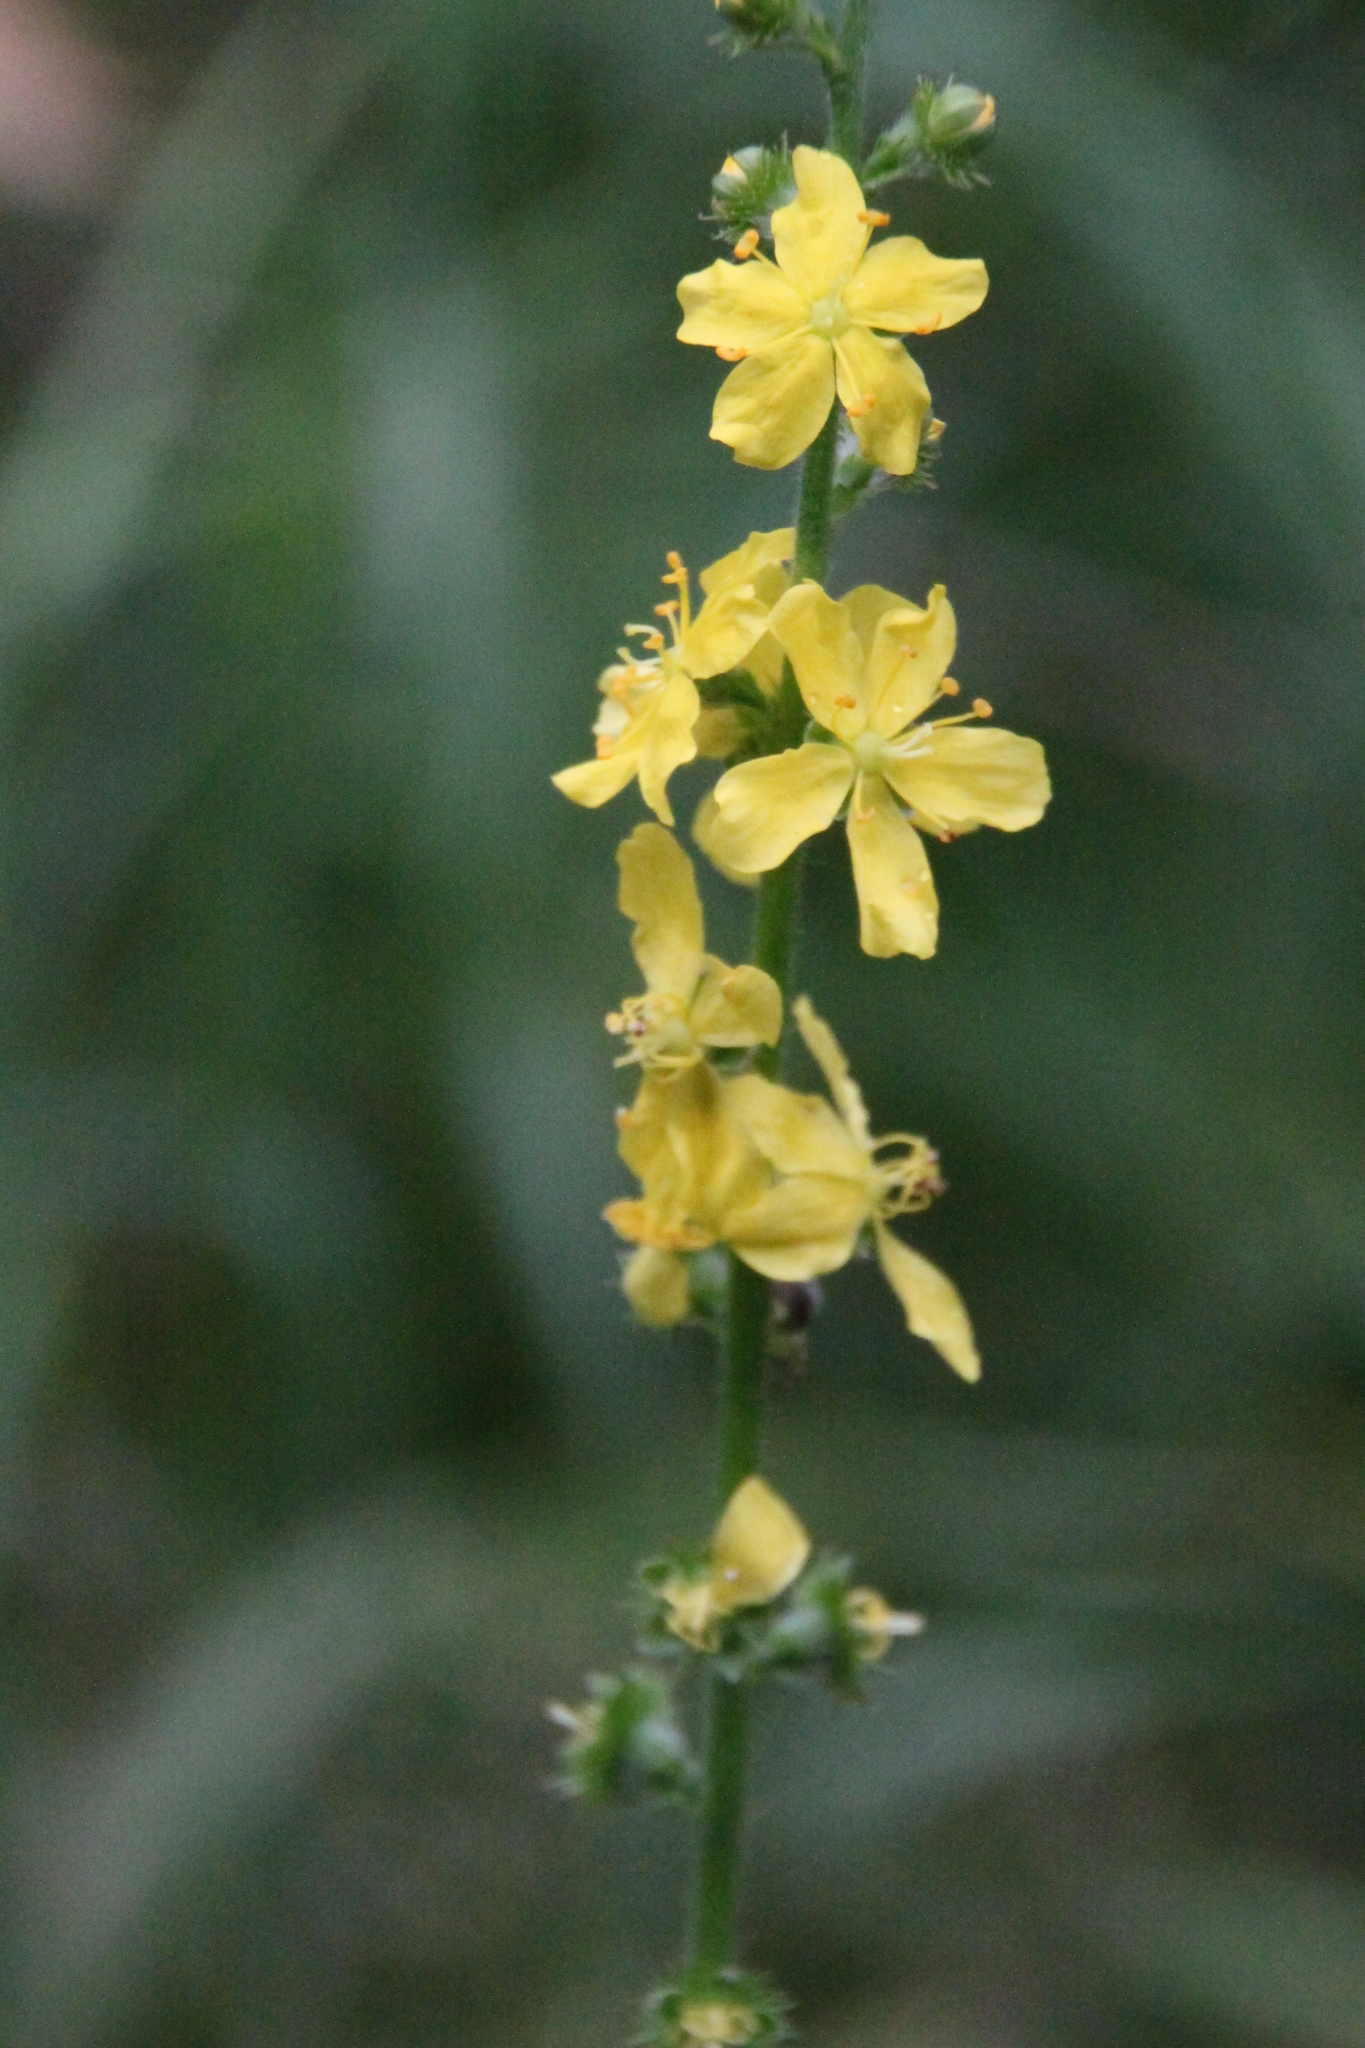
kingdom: Plantae
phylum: Tracheophyta
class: Magnoliopsida
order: Rosales
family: Rosaceae
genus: Agrimonia
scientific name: Agrimonia eupatoria
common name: Agrimony
